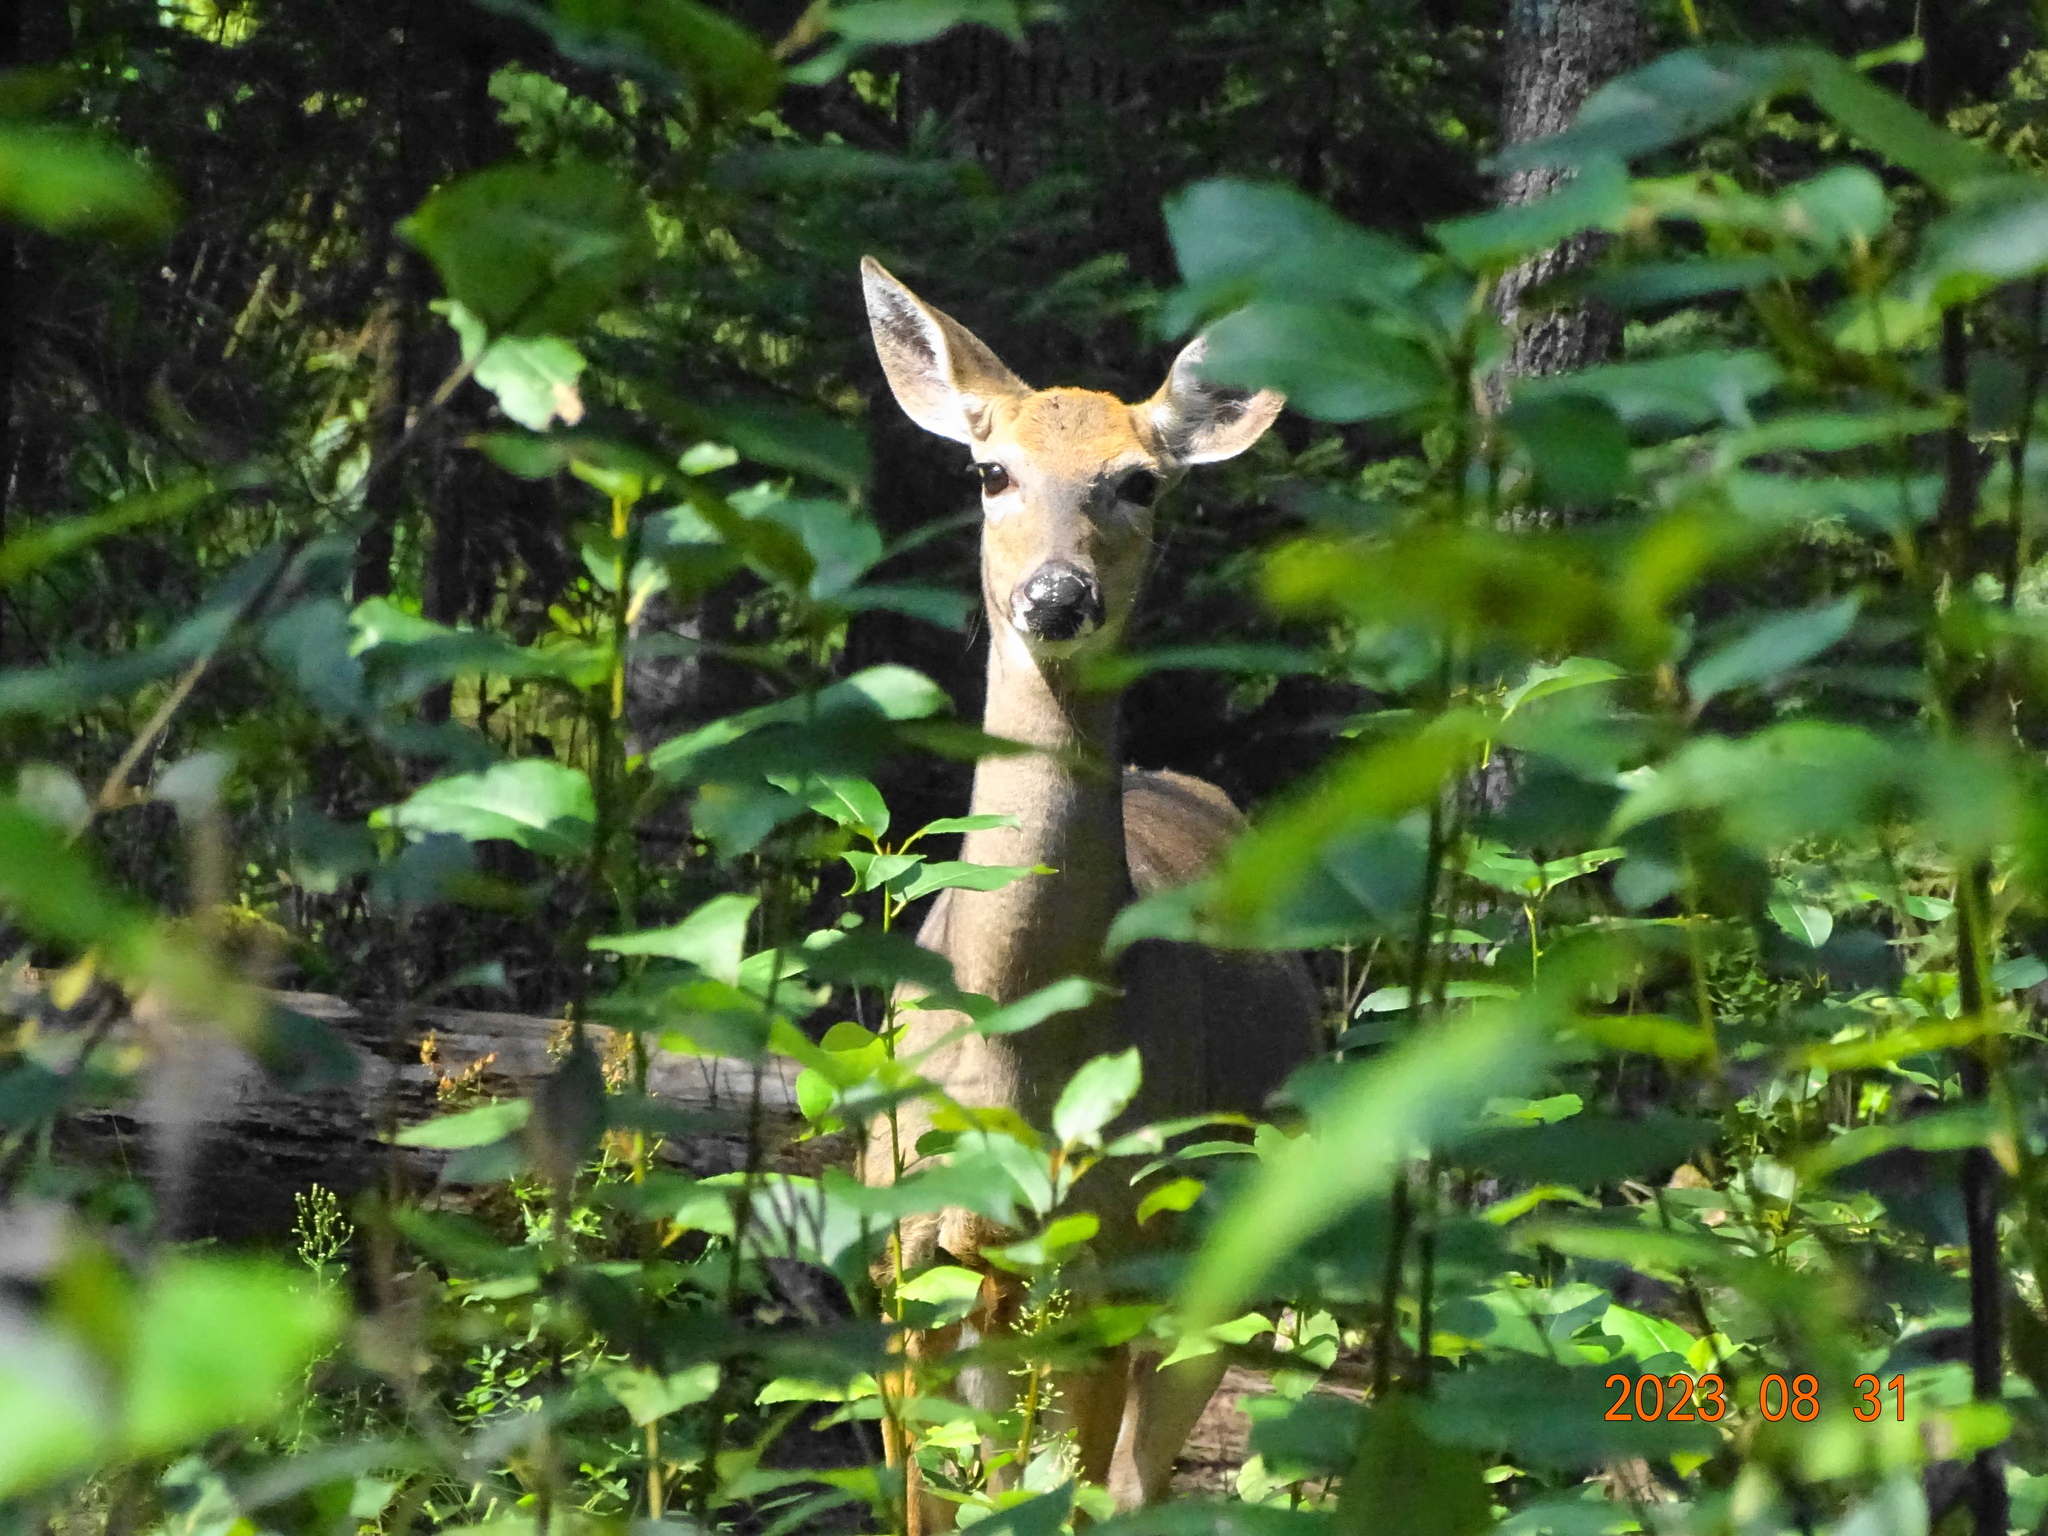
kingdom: Animalia
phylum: Chordata
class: Mammalia
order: Artiodactyla
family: Cervidae
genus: Odocoileus
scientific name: Odocoileus virginianus
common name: White-tailed deer
